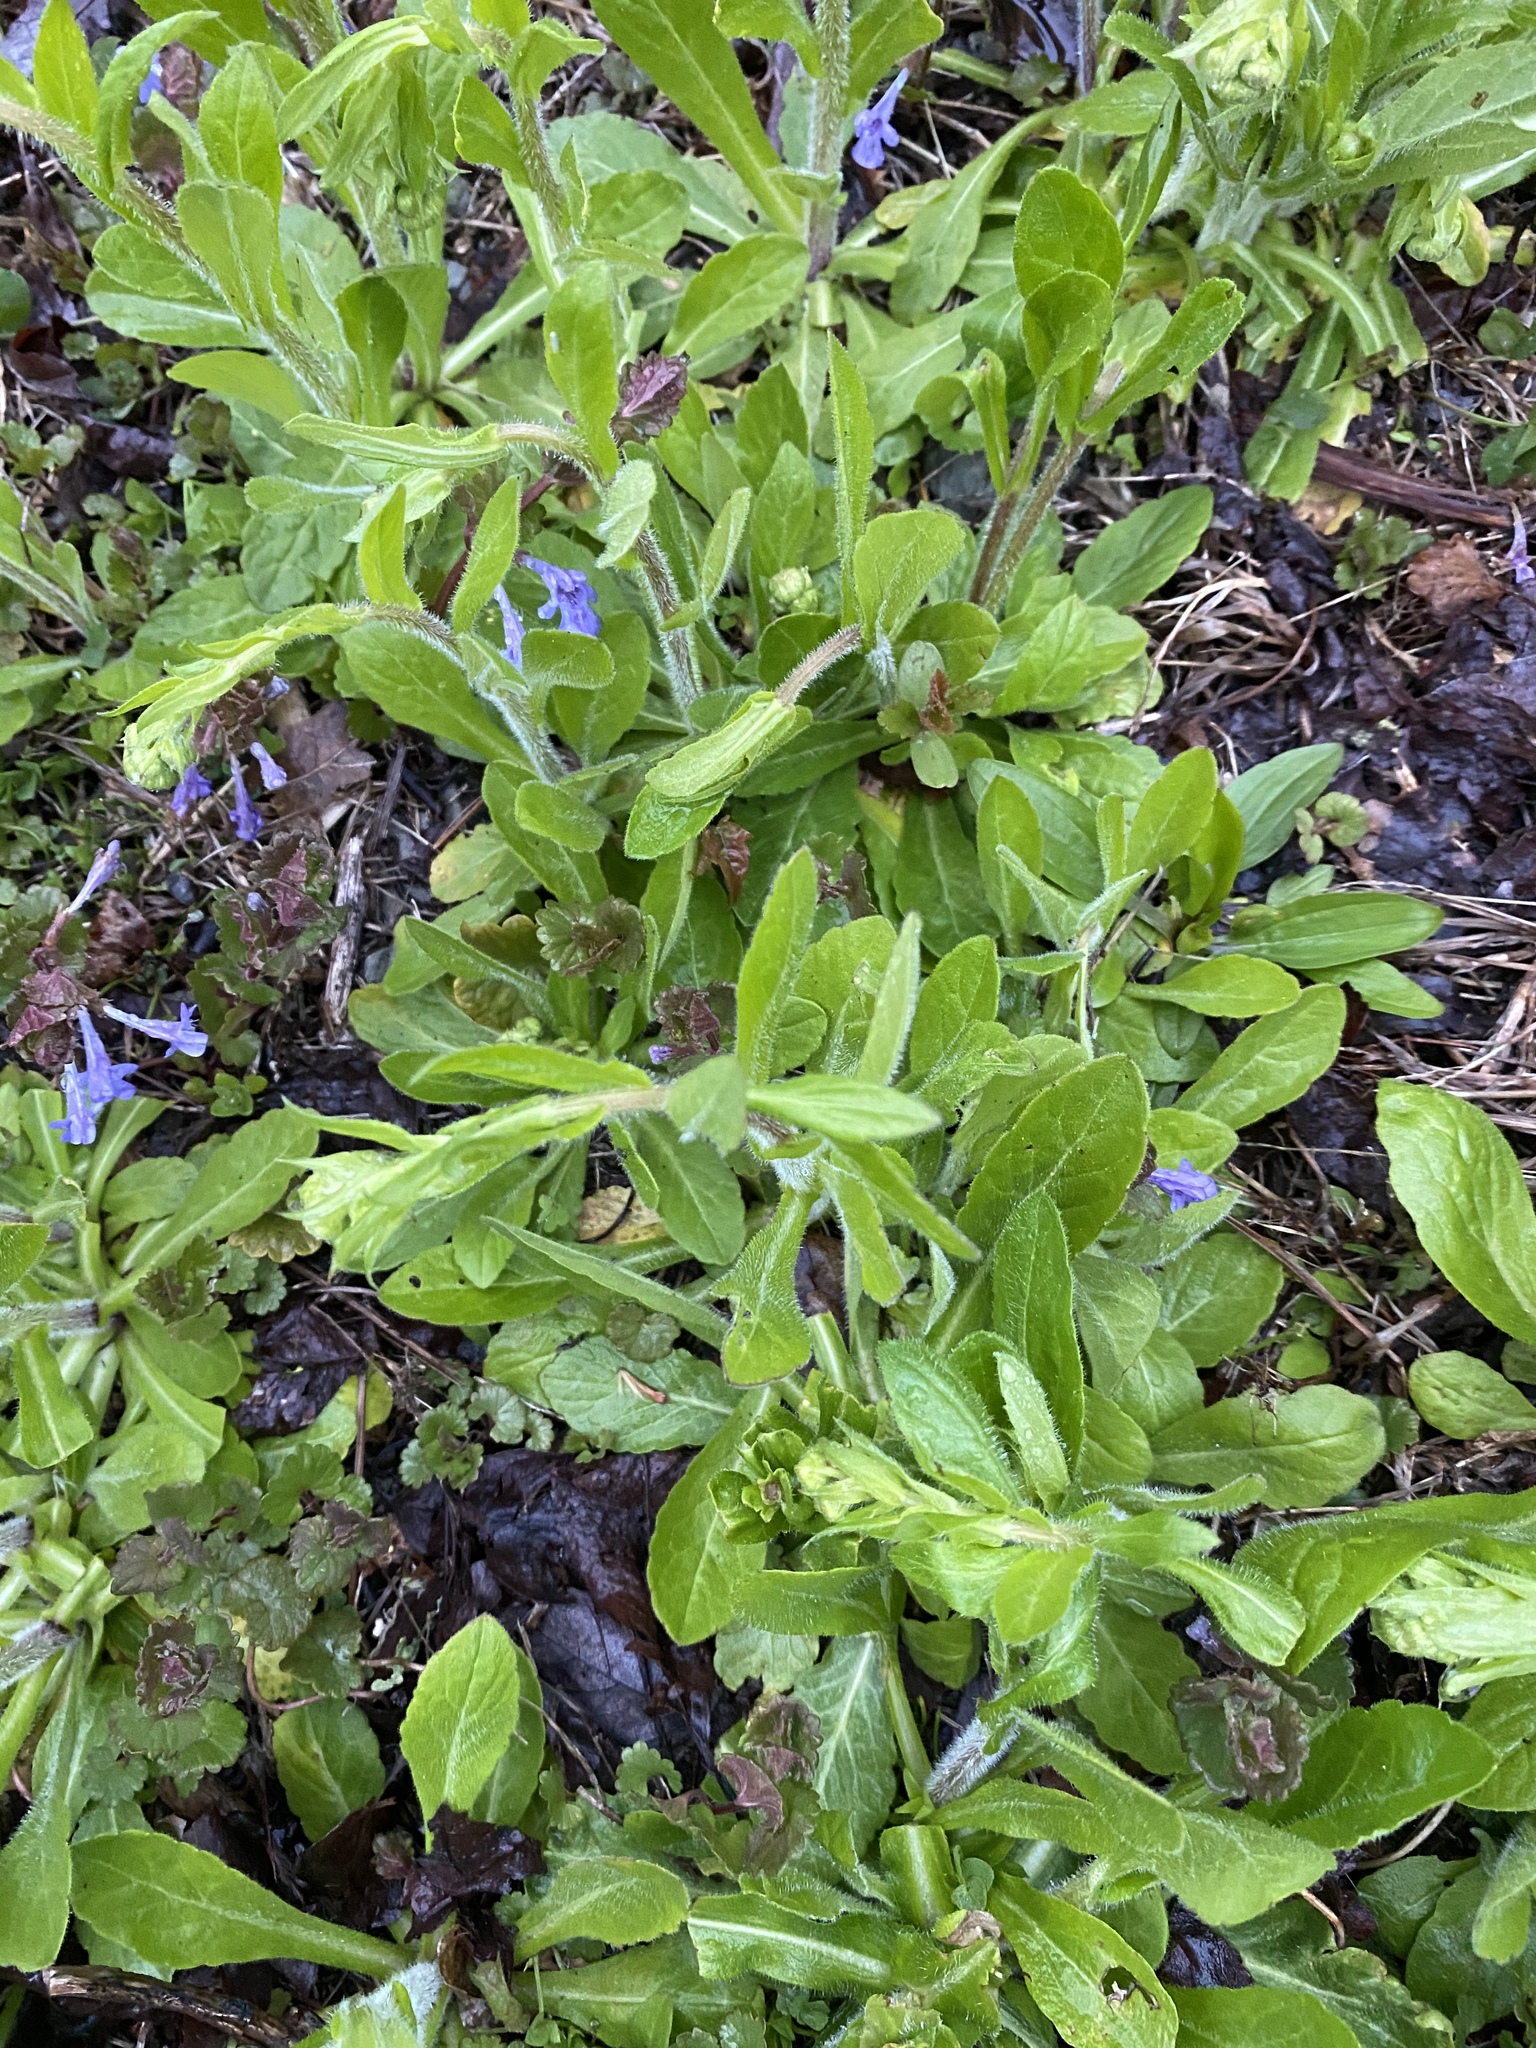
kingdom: Plantae
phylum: Tracheophyta
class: Magnoliopsida
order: Asterales
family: Asteraceae
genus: Erigeron
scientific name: Erigeron philadelphicus
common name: Robin's-plantain
